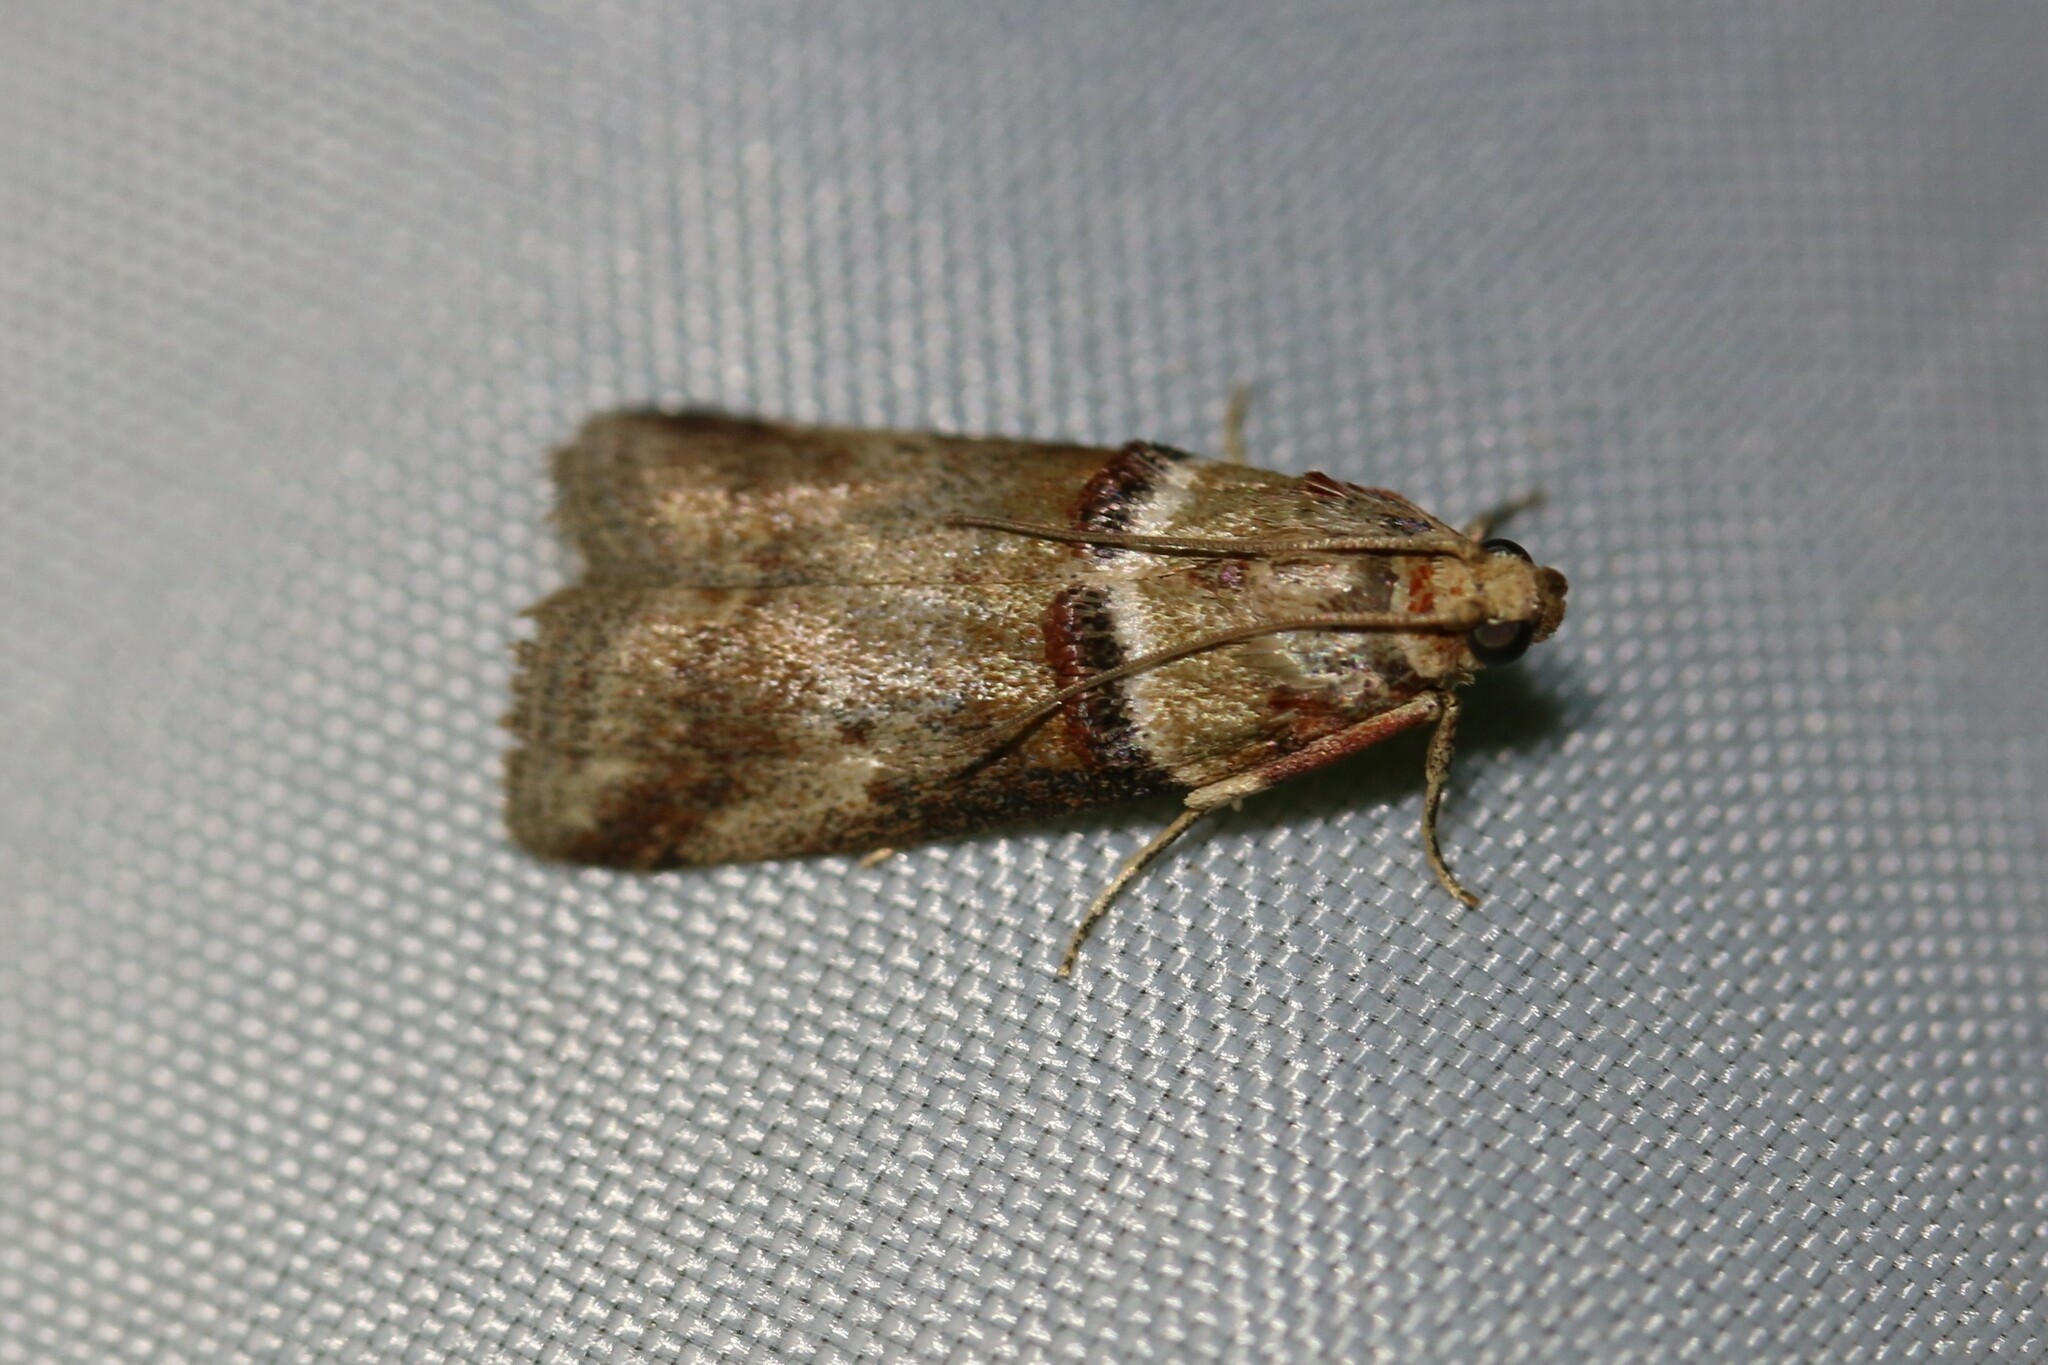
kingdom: Animalia
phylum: Arthropoda
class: Insecta
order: Lepidoptera
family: Pyralidae
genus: Acrobasis
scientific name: Acrobasis tumidana
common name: Scarce oak knot-horn
